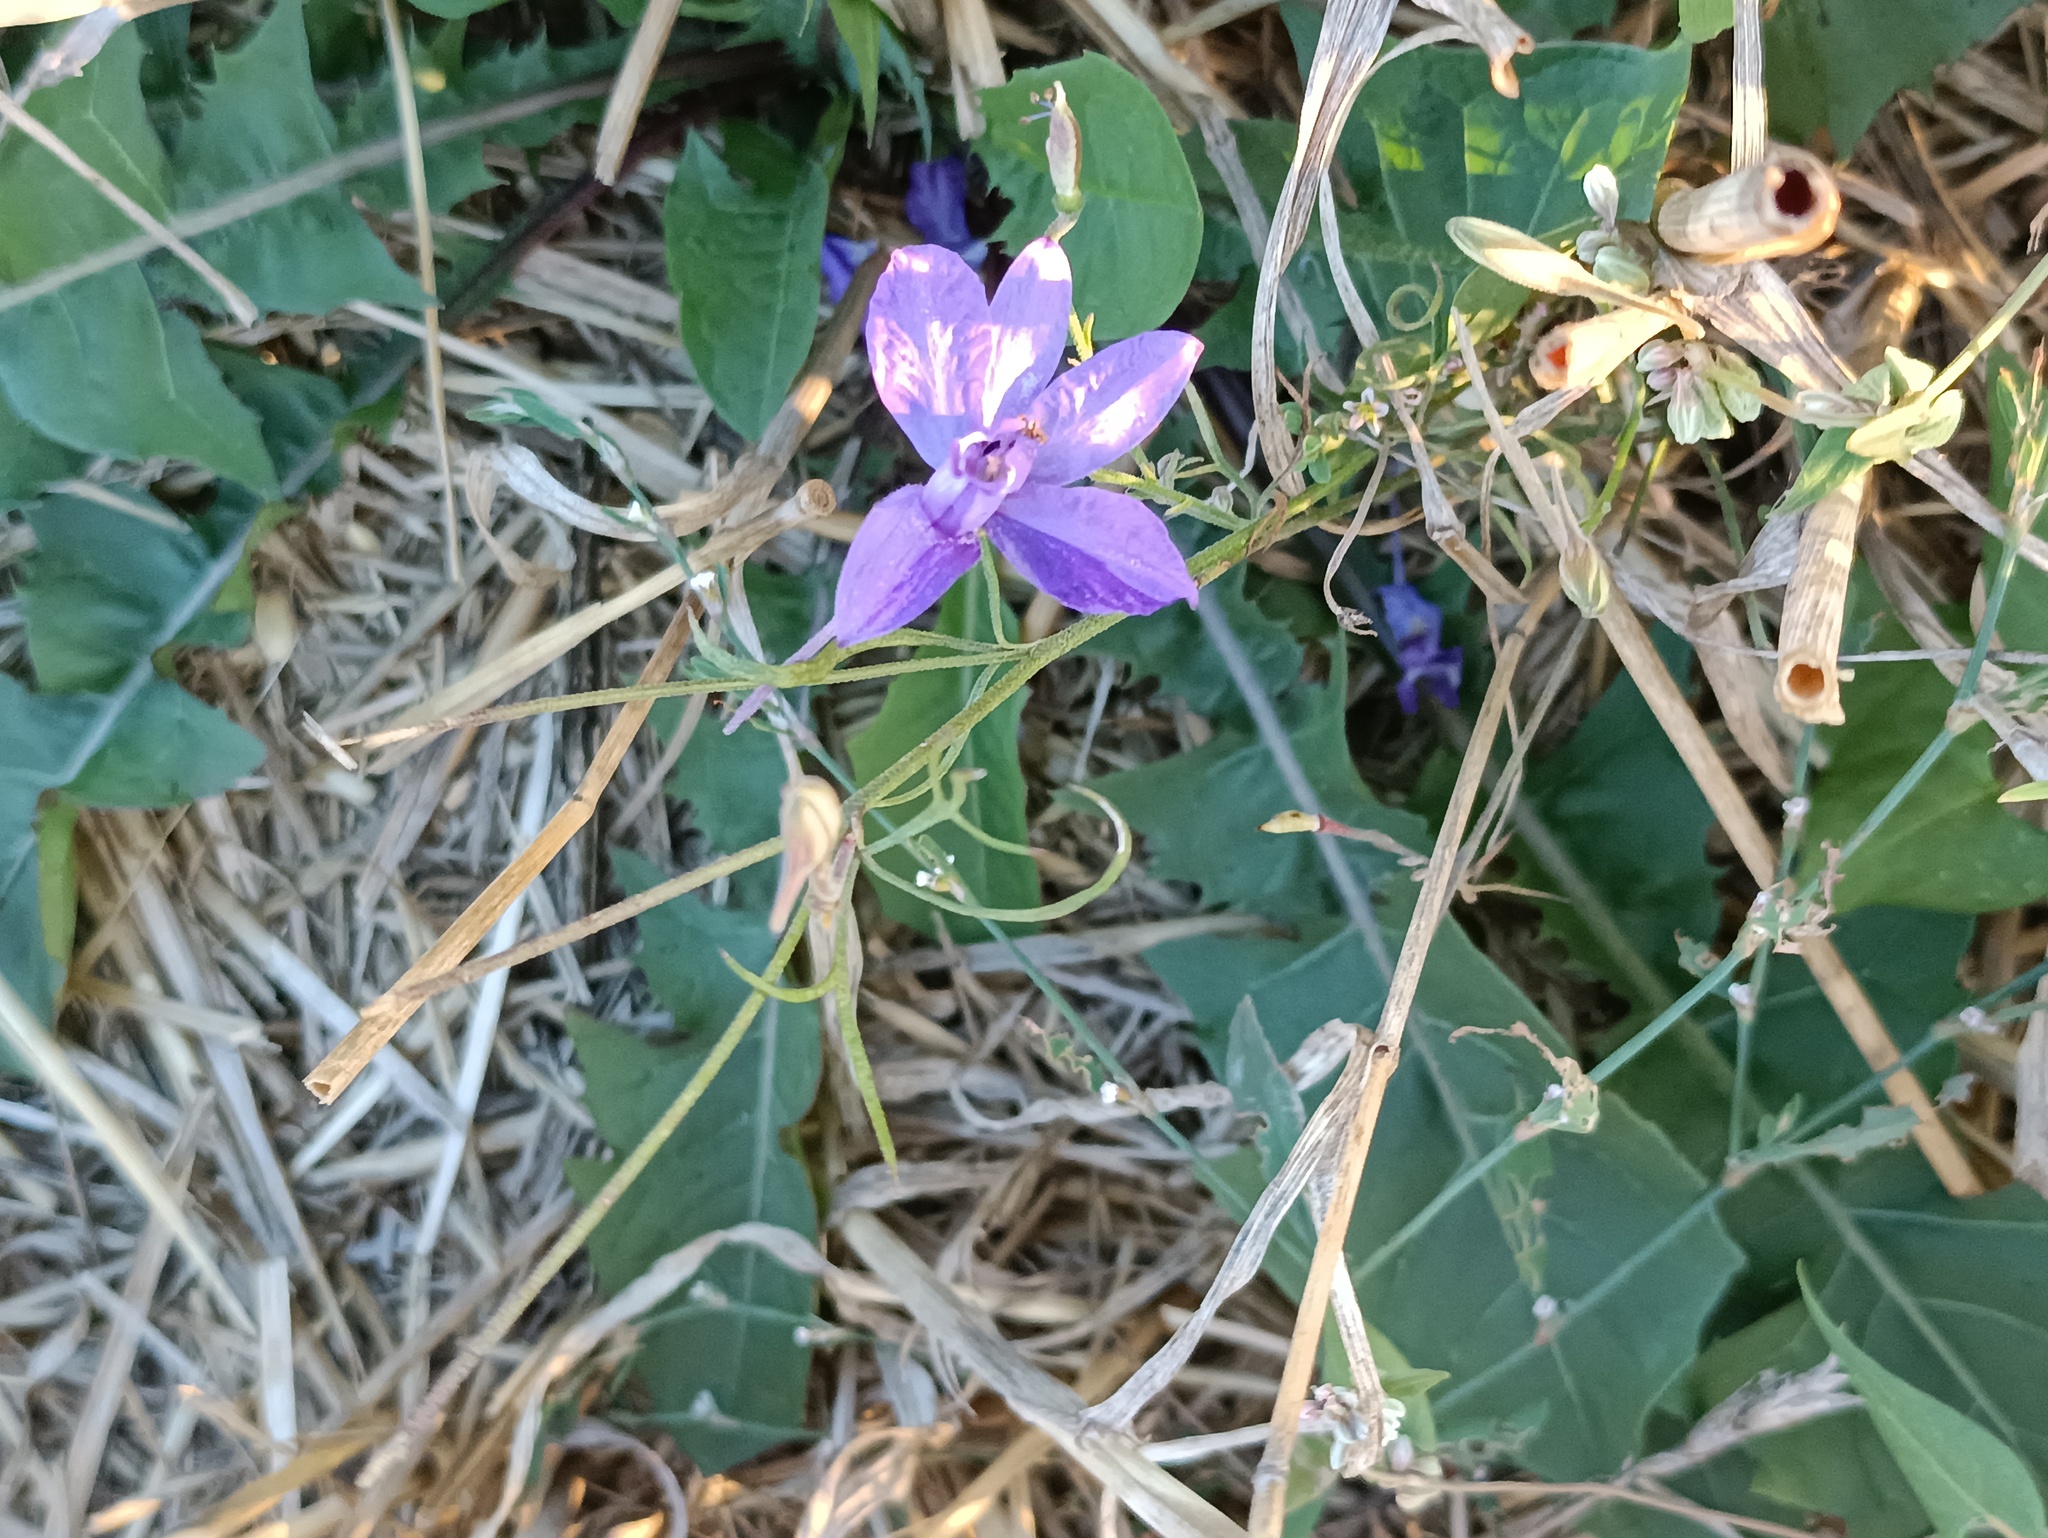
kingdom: Plantae
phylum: Tracheophyta
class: Magnoliopsida
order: Ranunculales
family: Ranunculaceae
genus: Delphinium
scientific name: Delphinium consolida
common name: Branching larkspur
